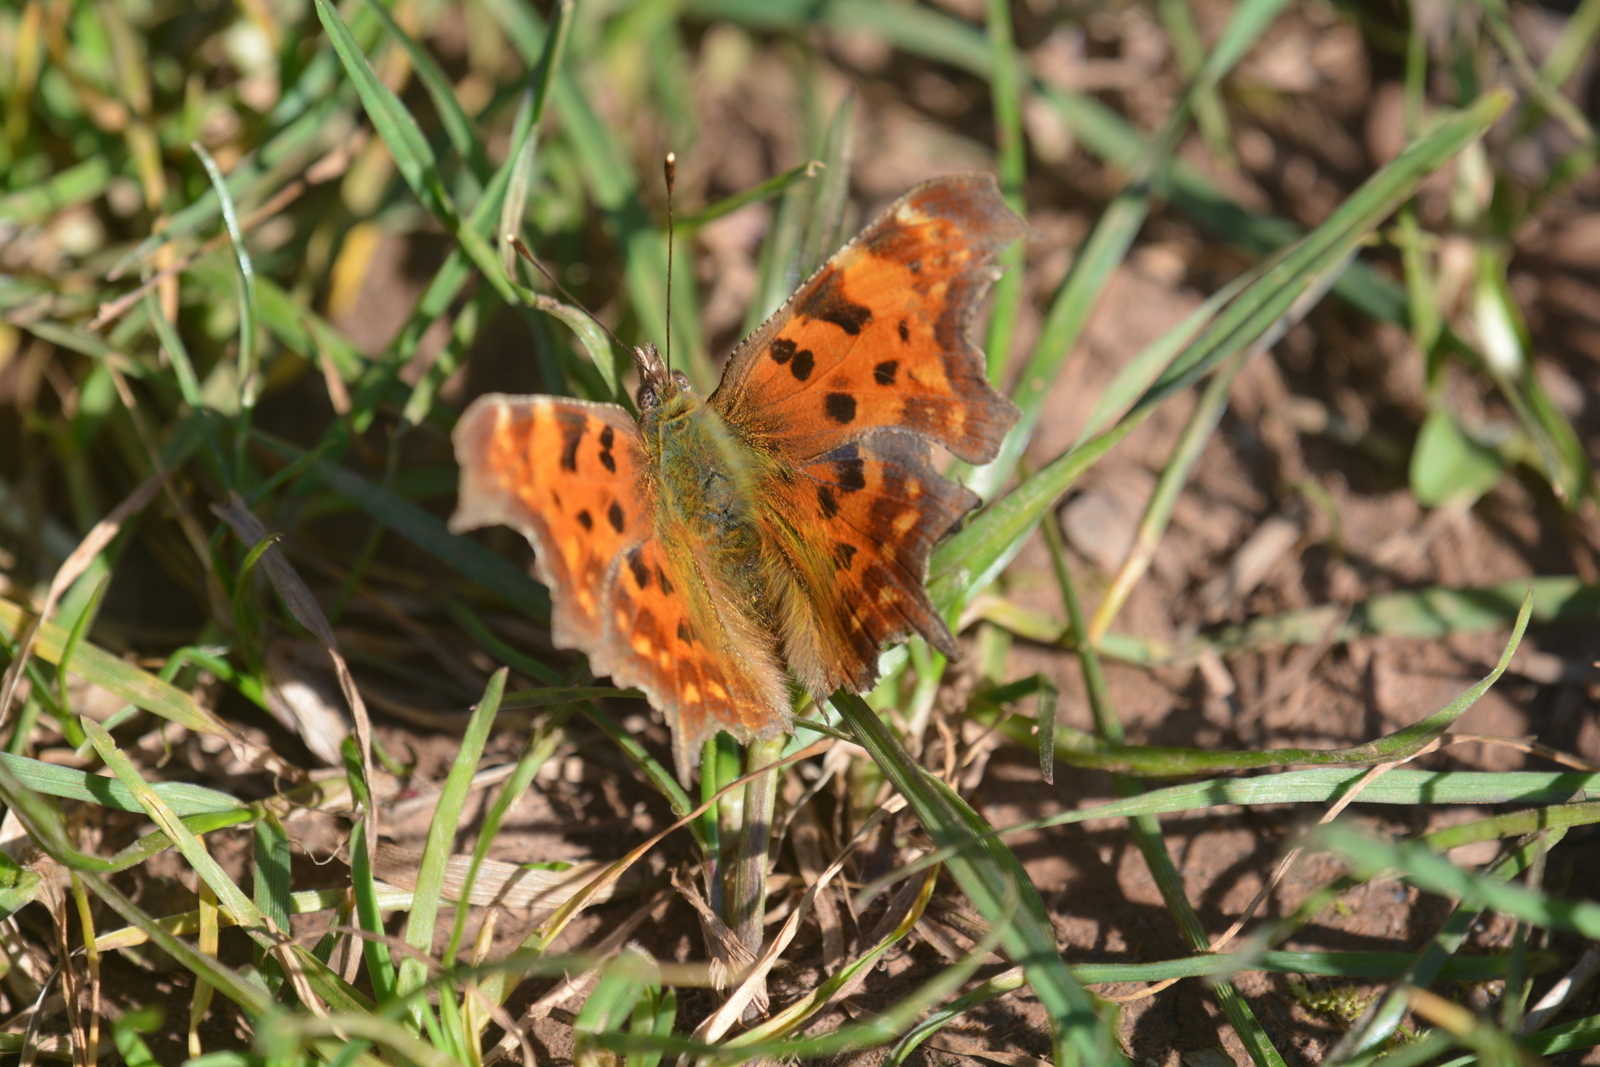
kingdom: Animalia
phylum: Arthropoda
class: Insecta
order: Lepidoptera
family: Nymphalidae
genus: Polygonia
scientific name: Polygonia c-album
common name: Comma
